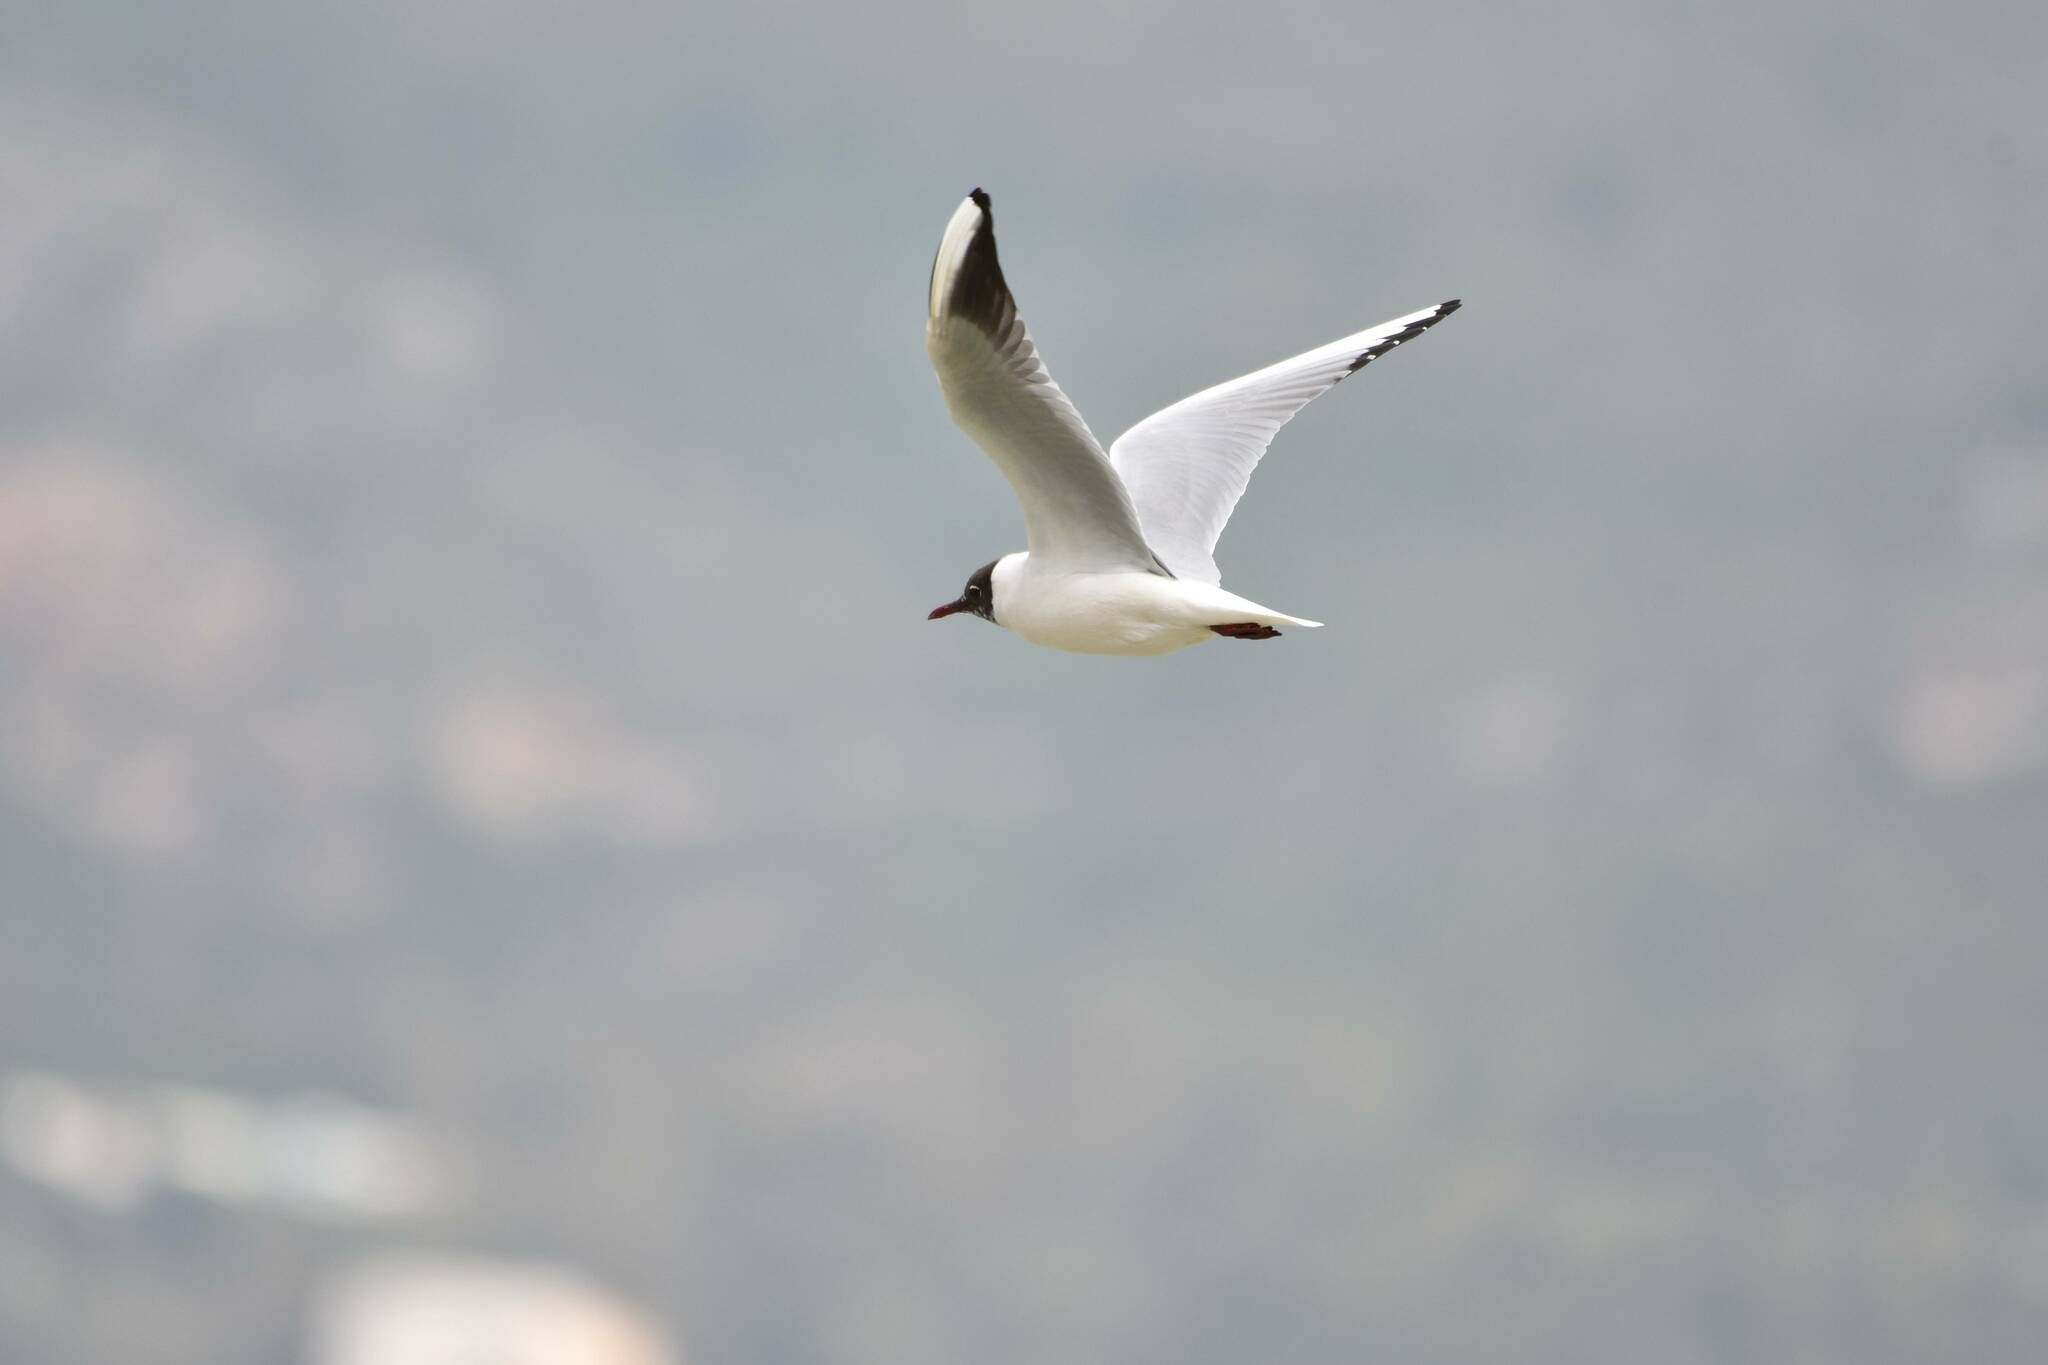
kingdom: Animalia
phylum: Chordata
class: Aves
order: Charadriiformes
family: Laridae
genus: Chroicocephalus
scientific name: Chroicocephalus ridibundus
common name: Black-headed gull
